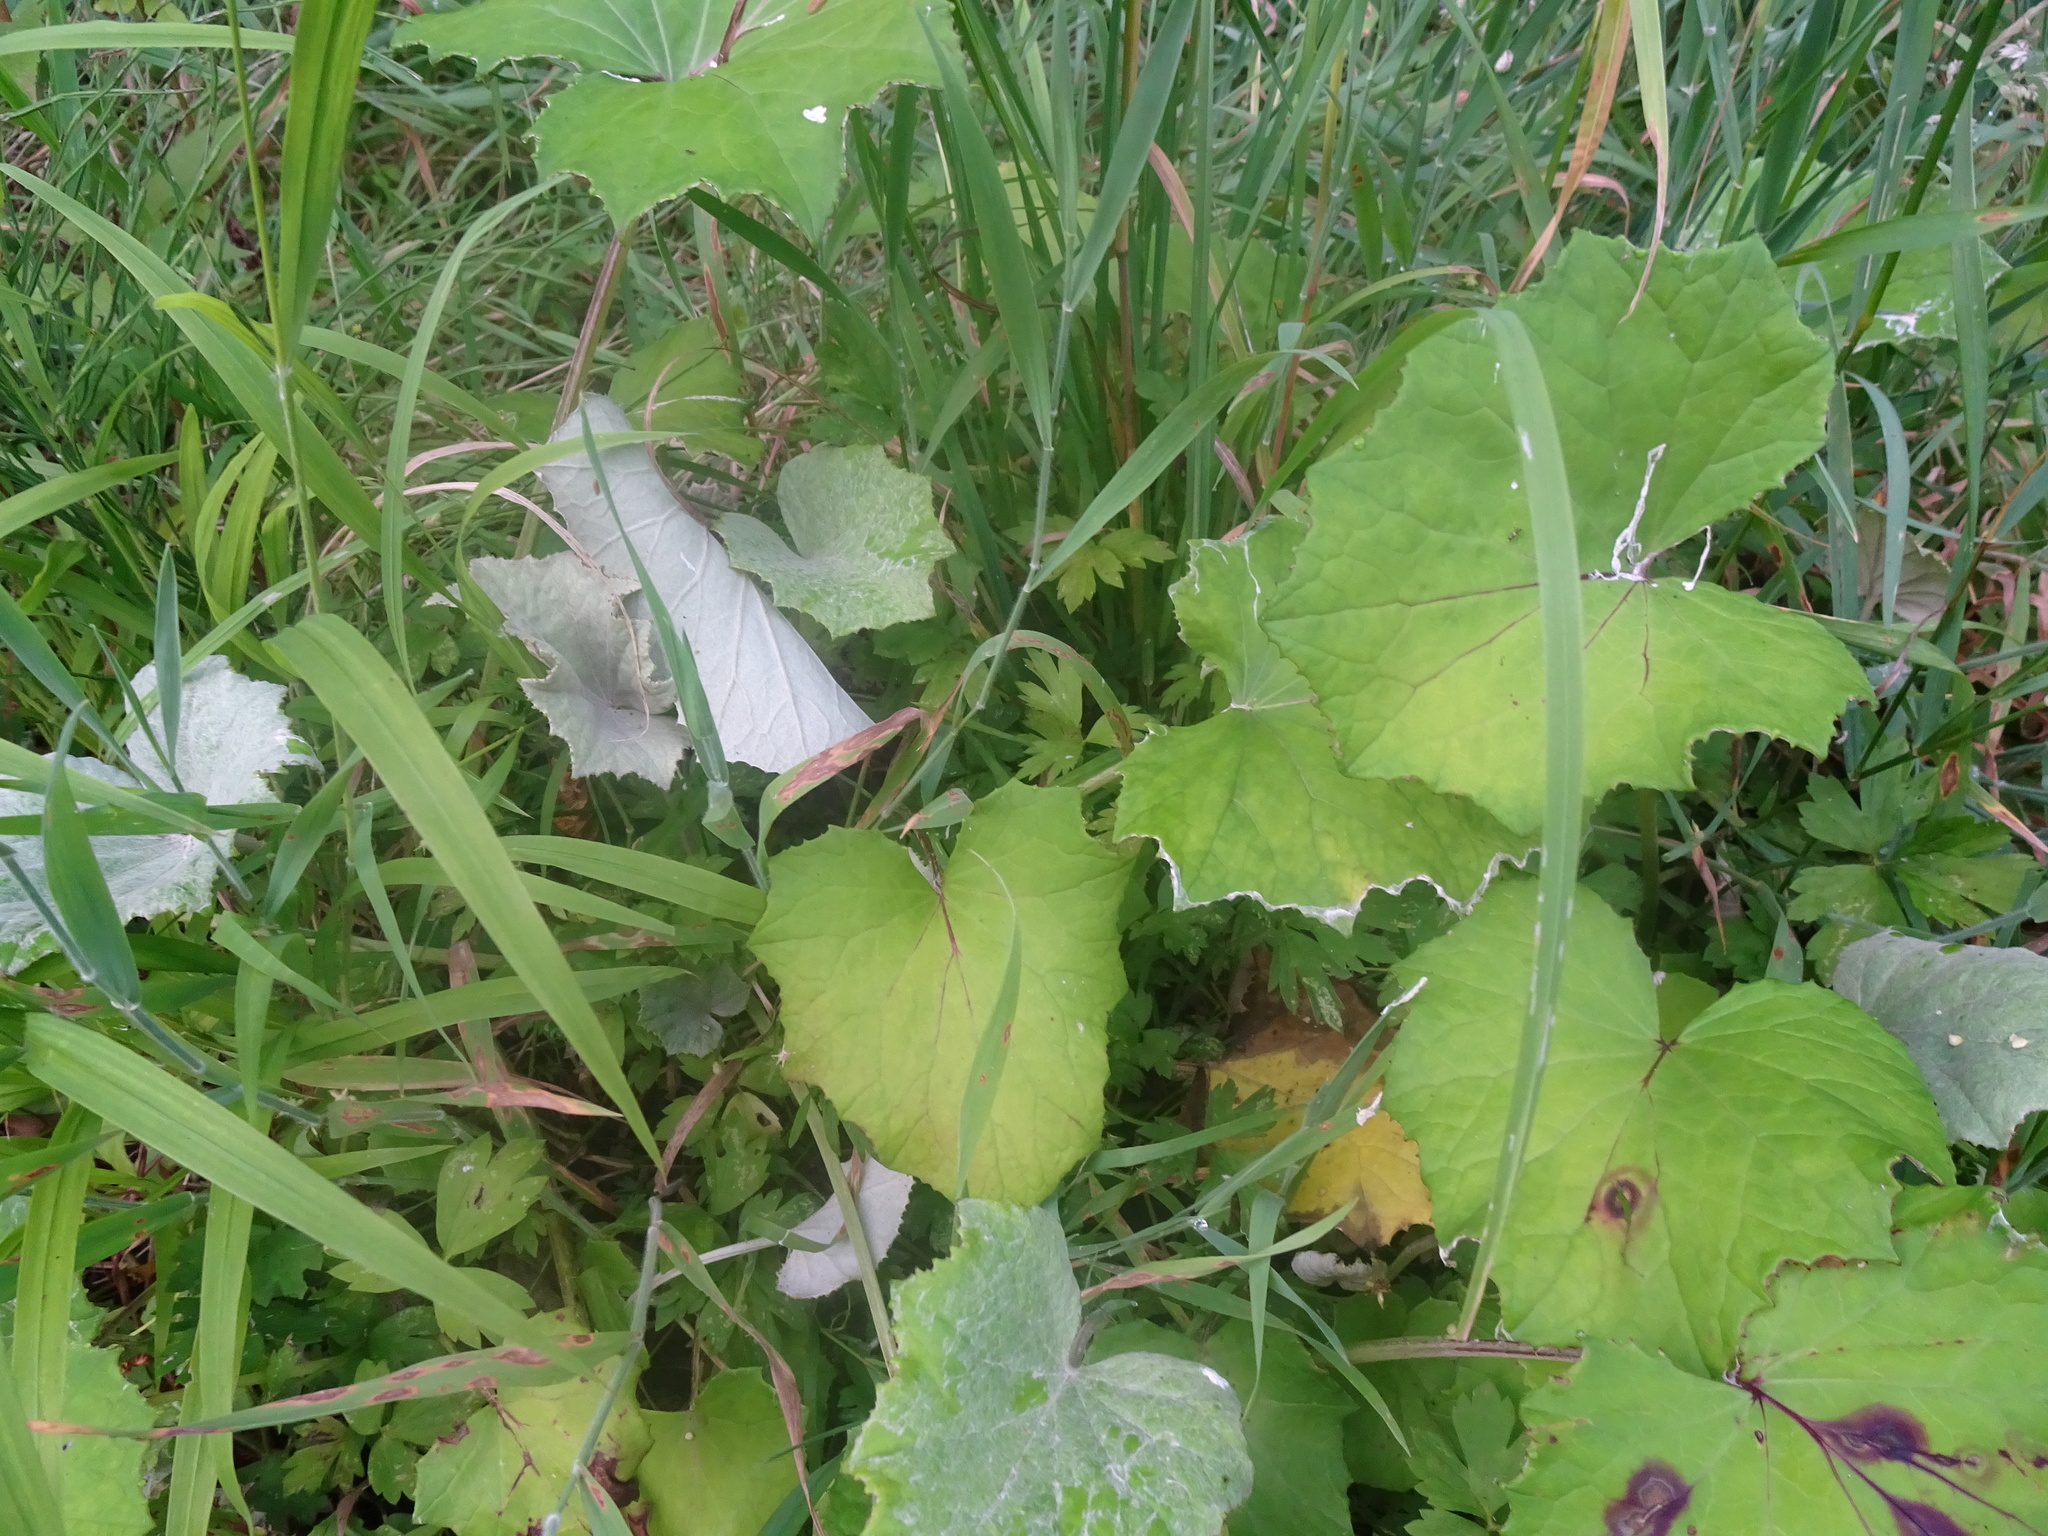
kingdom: Plantae
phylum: Tracheophyta
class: Magnoliopsida
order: Asterales
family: Asteraceae
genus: Tussilago
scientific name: Tussilago farfara
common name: Coltsfoot
